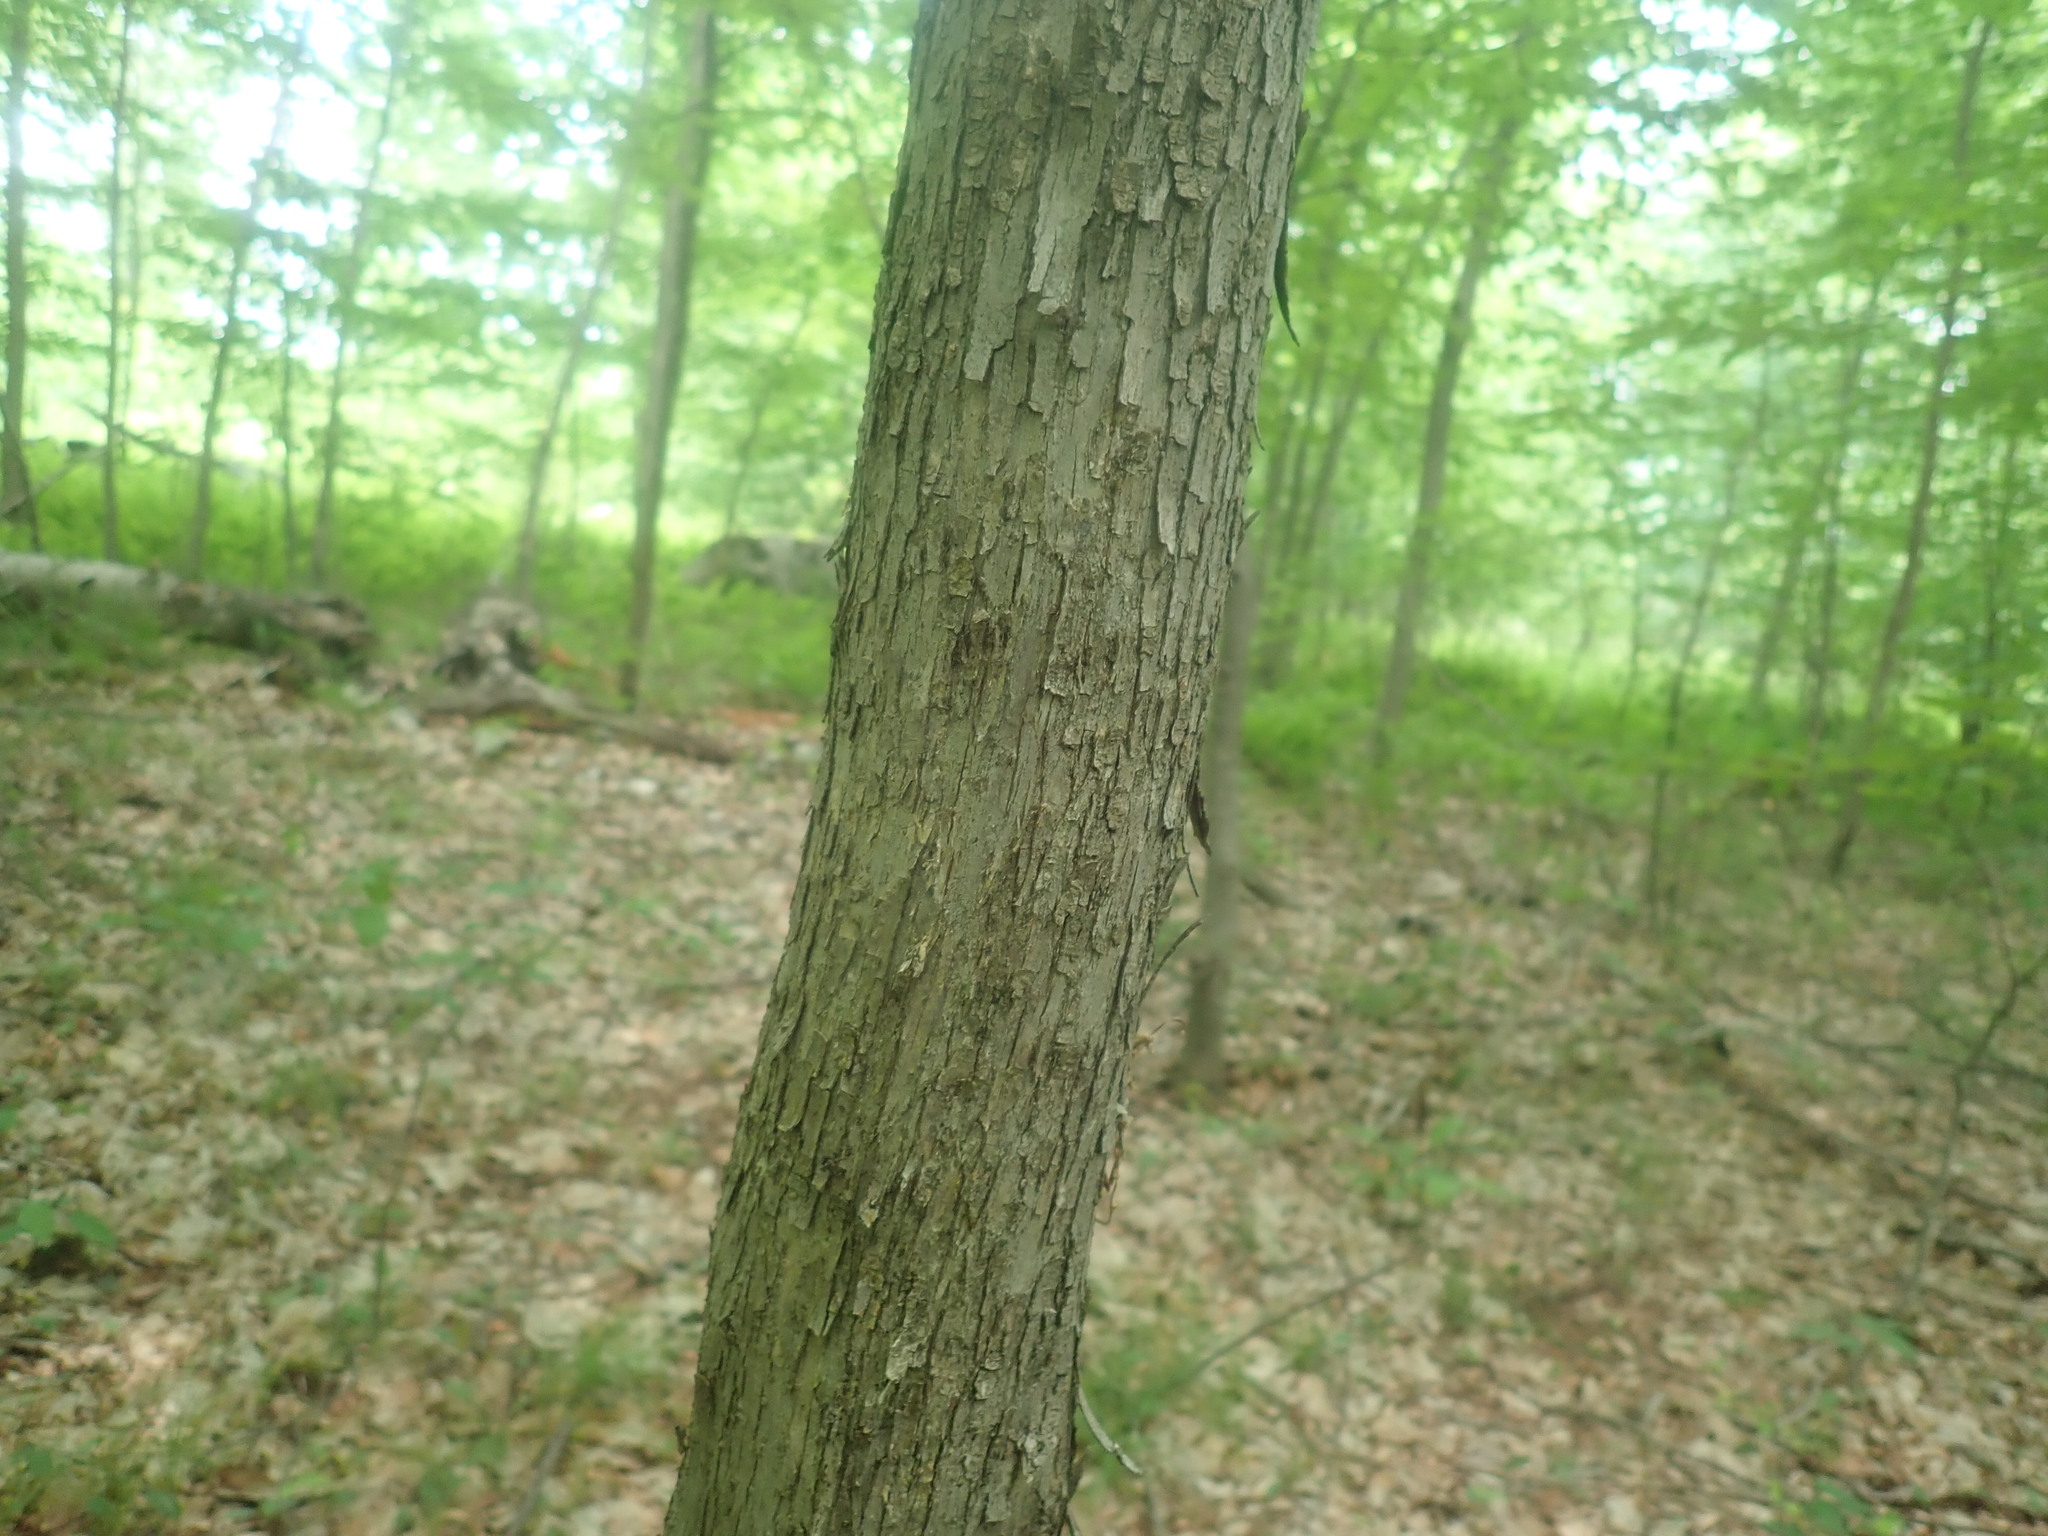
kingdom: Plantae
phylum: Tracheophyta
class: Magnoliopsida
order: Fagales
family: Betulaceae
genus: Ostrya
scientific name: Ostrya virginiana
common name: Ironwood
